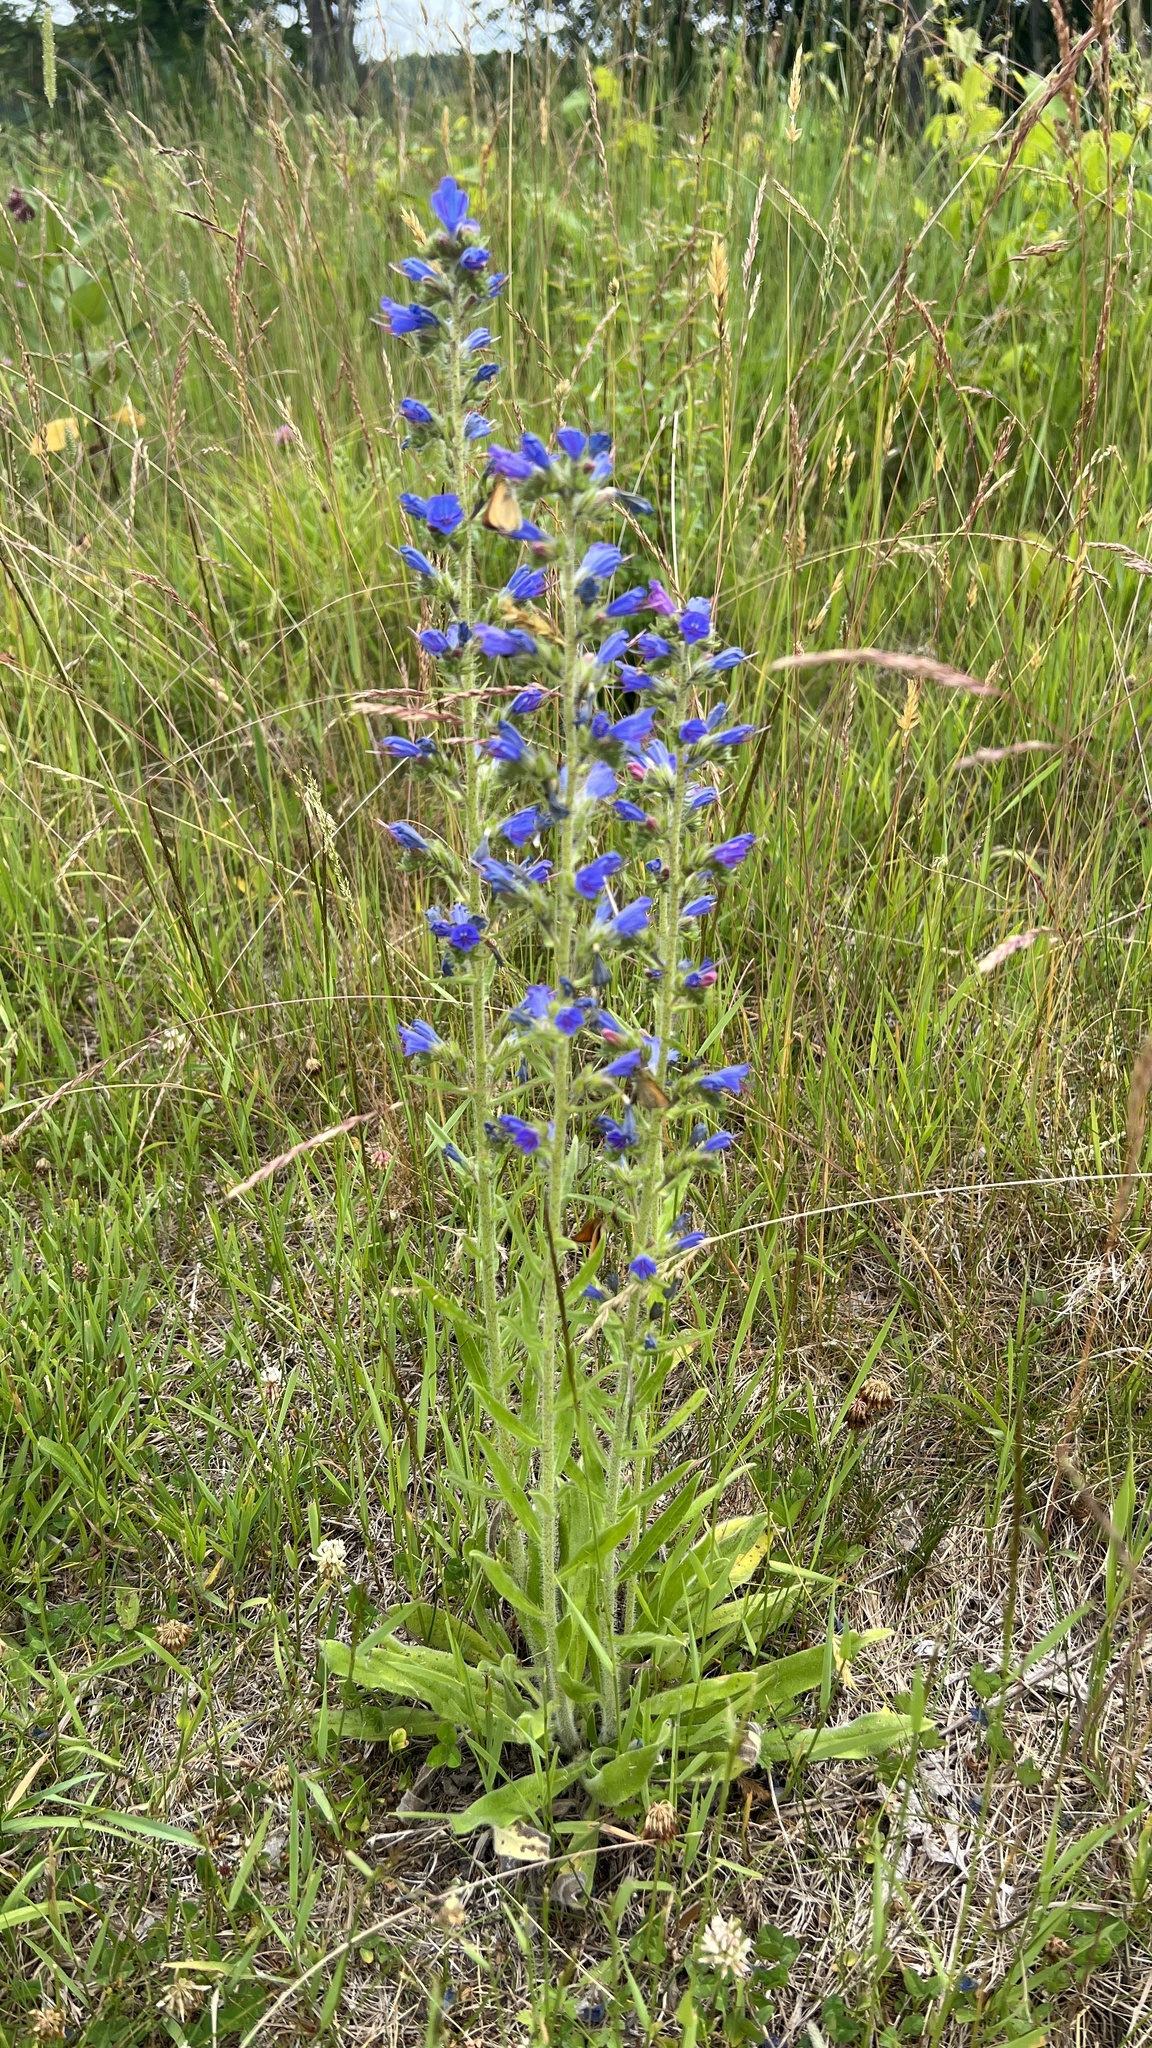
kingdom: Plantae
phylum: Tracheophyta
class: Magnoliopsida
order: Boraginales
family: Boraginaceae
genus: Echium
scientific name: Echium vulgare
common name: Common viper's bugloss
